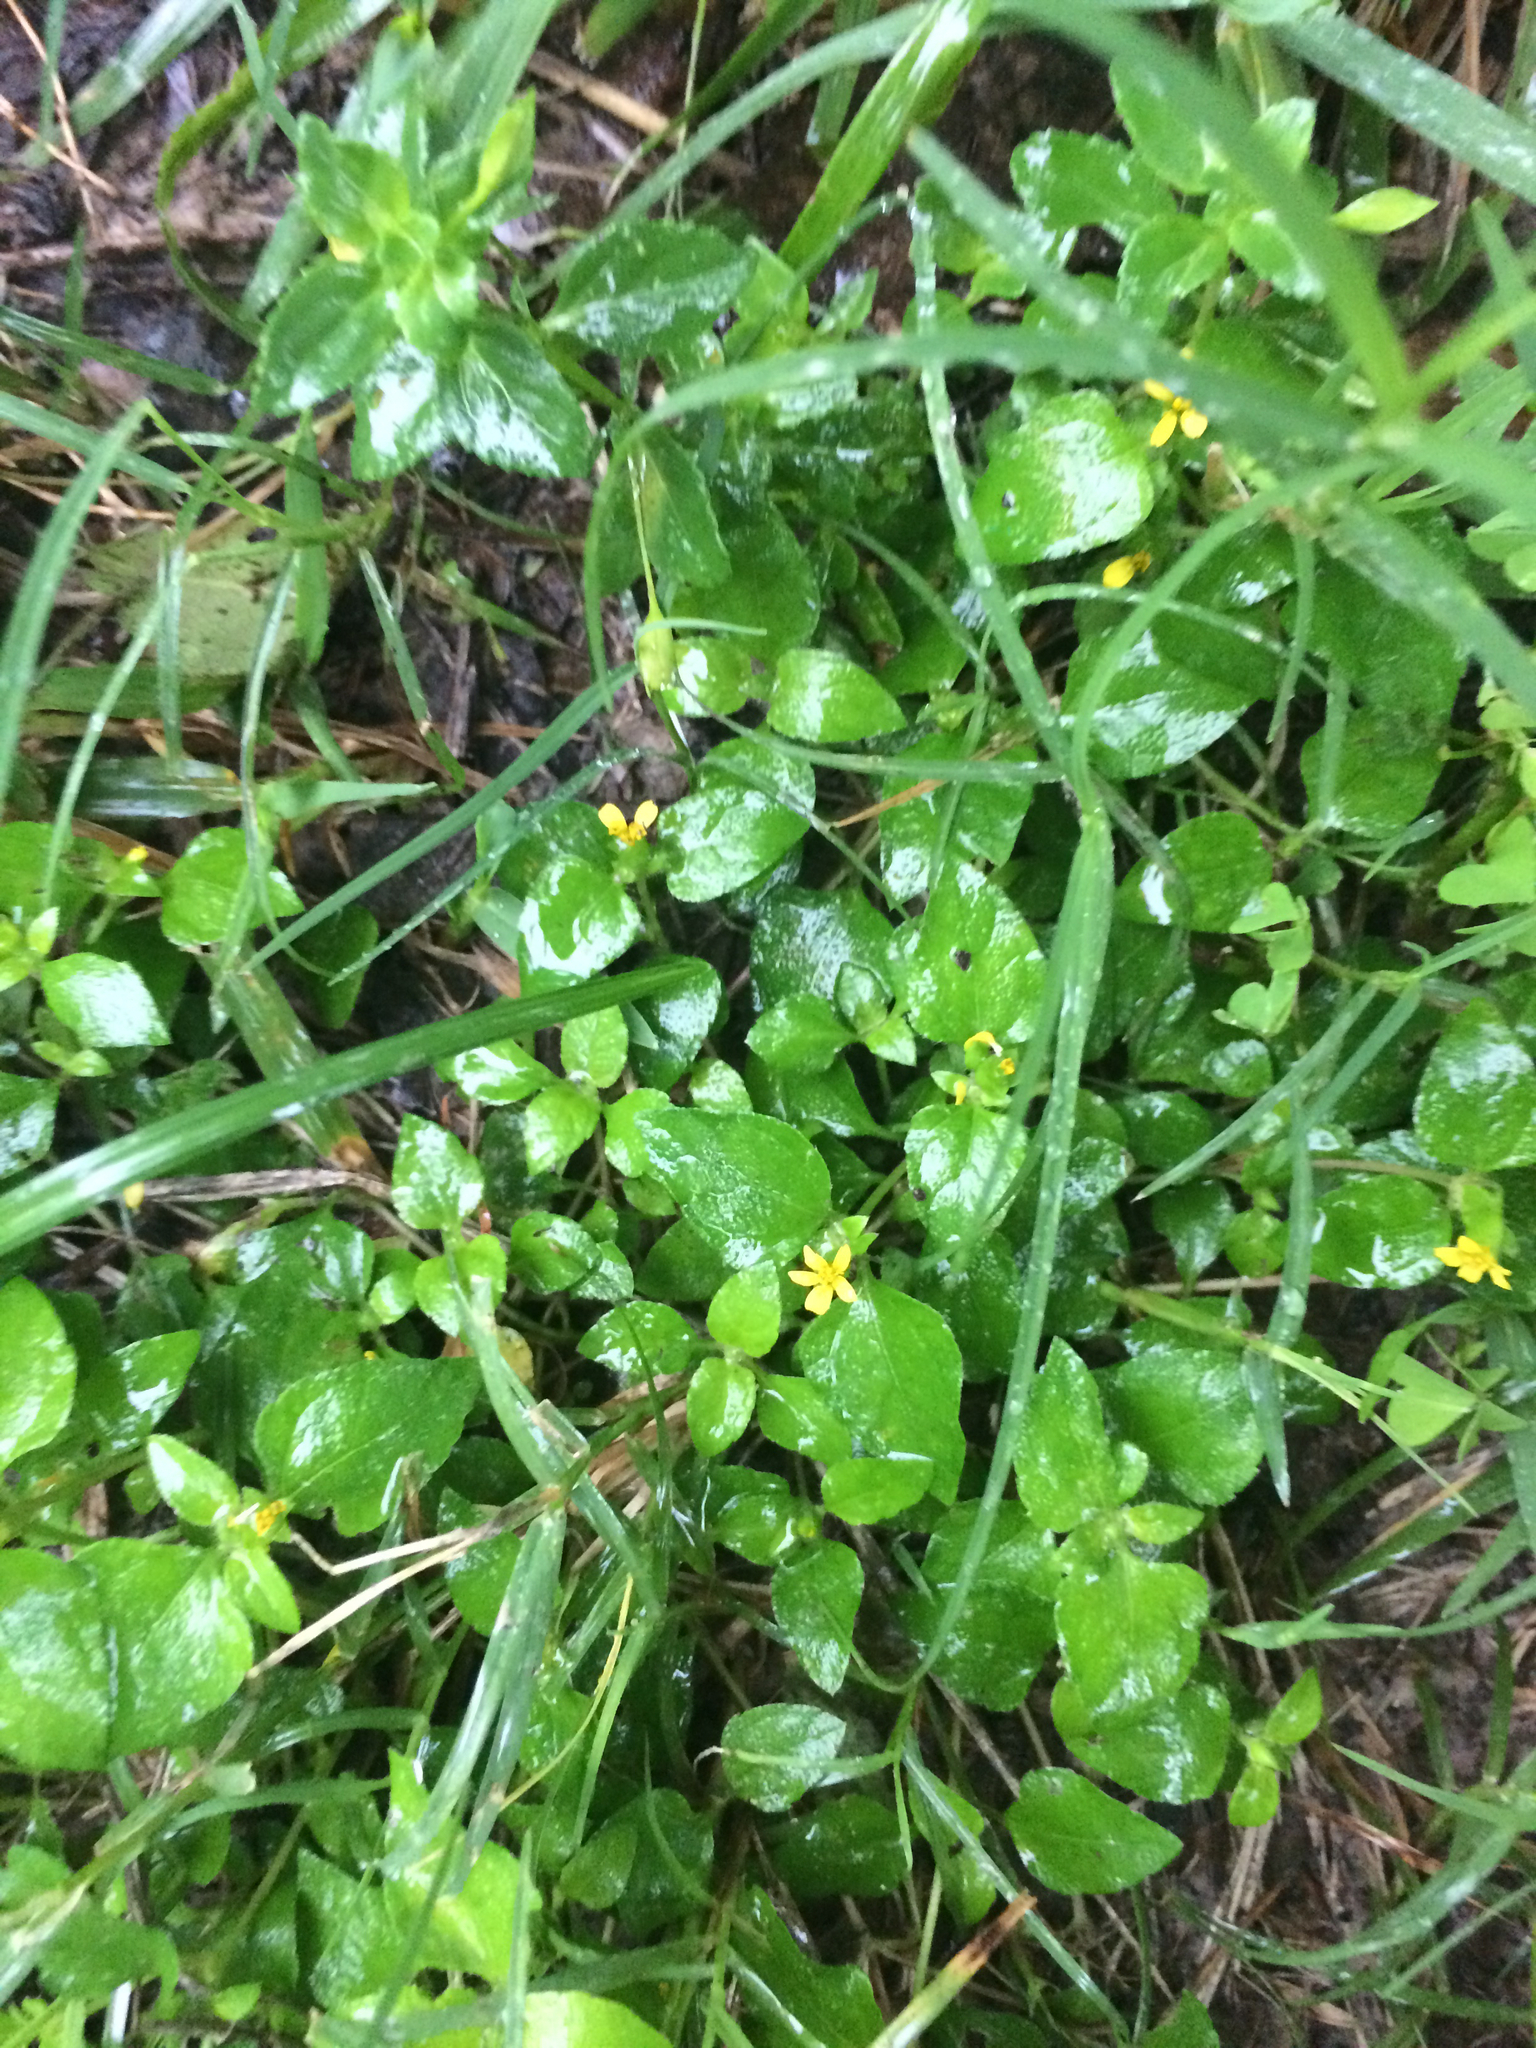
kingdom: Plantae
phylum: Tracheophyta
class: Magnoliopsida
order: Asterales
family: Asteraceae
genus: Calyptocarpus
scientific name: Calyptocarpus vialis
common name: Straggler daisy
